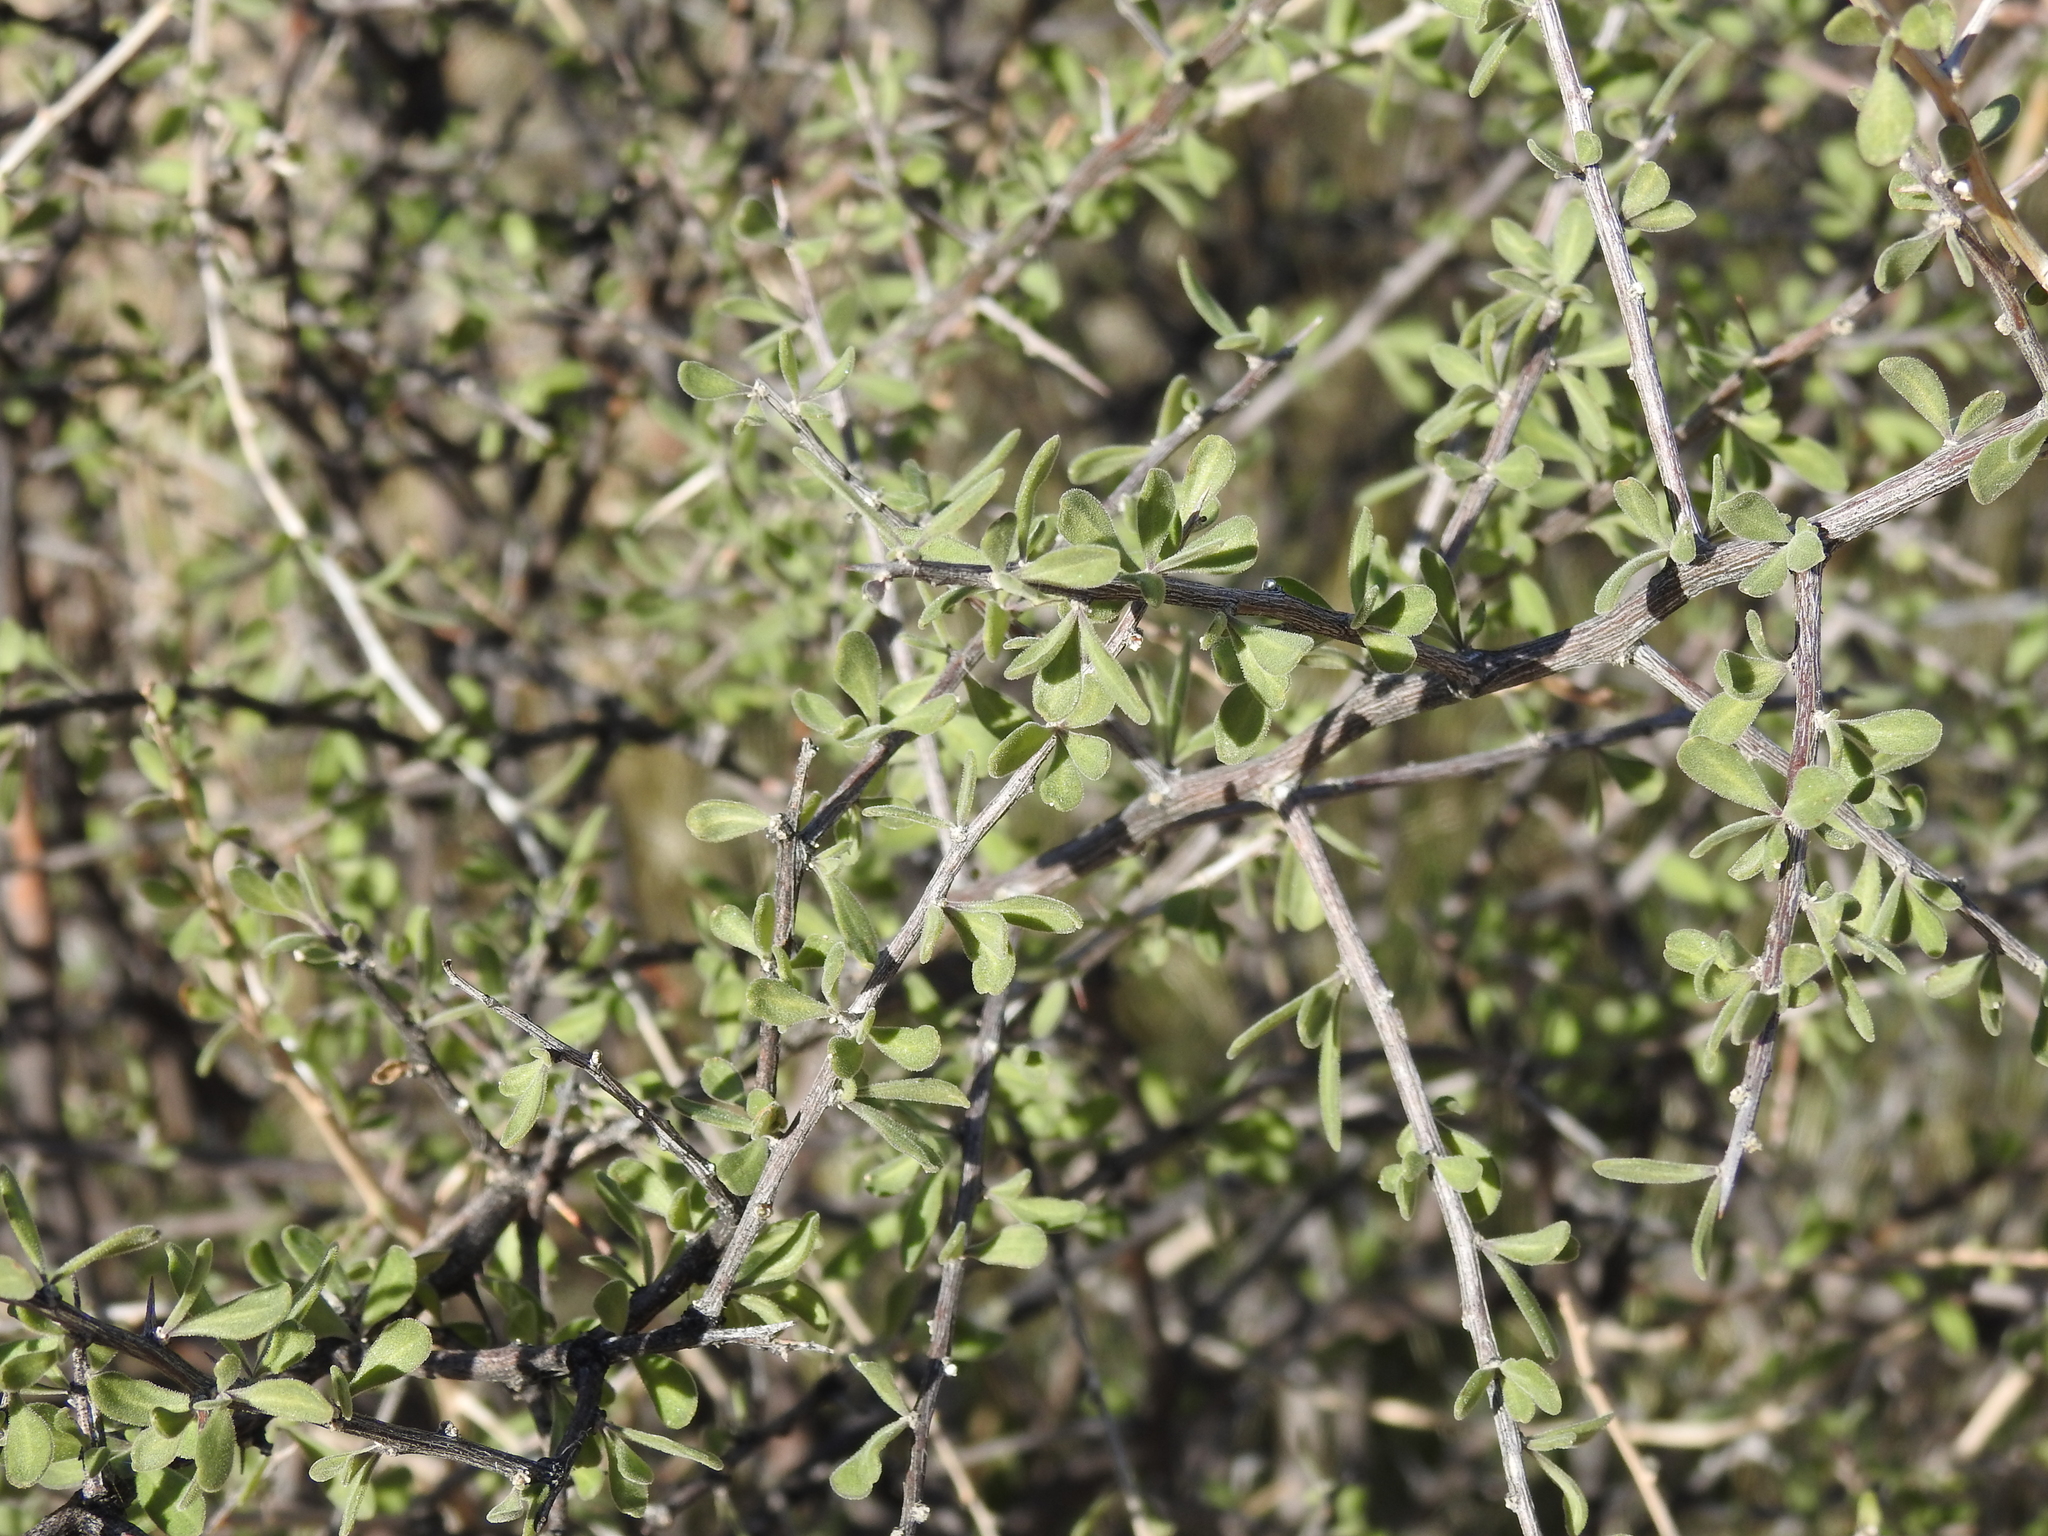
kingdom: Plantae
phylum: Tracheophyta
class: Magnoliopsida
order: Solanales
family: Solanaceae
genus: Lycium
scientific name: Lycium exsertum
